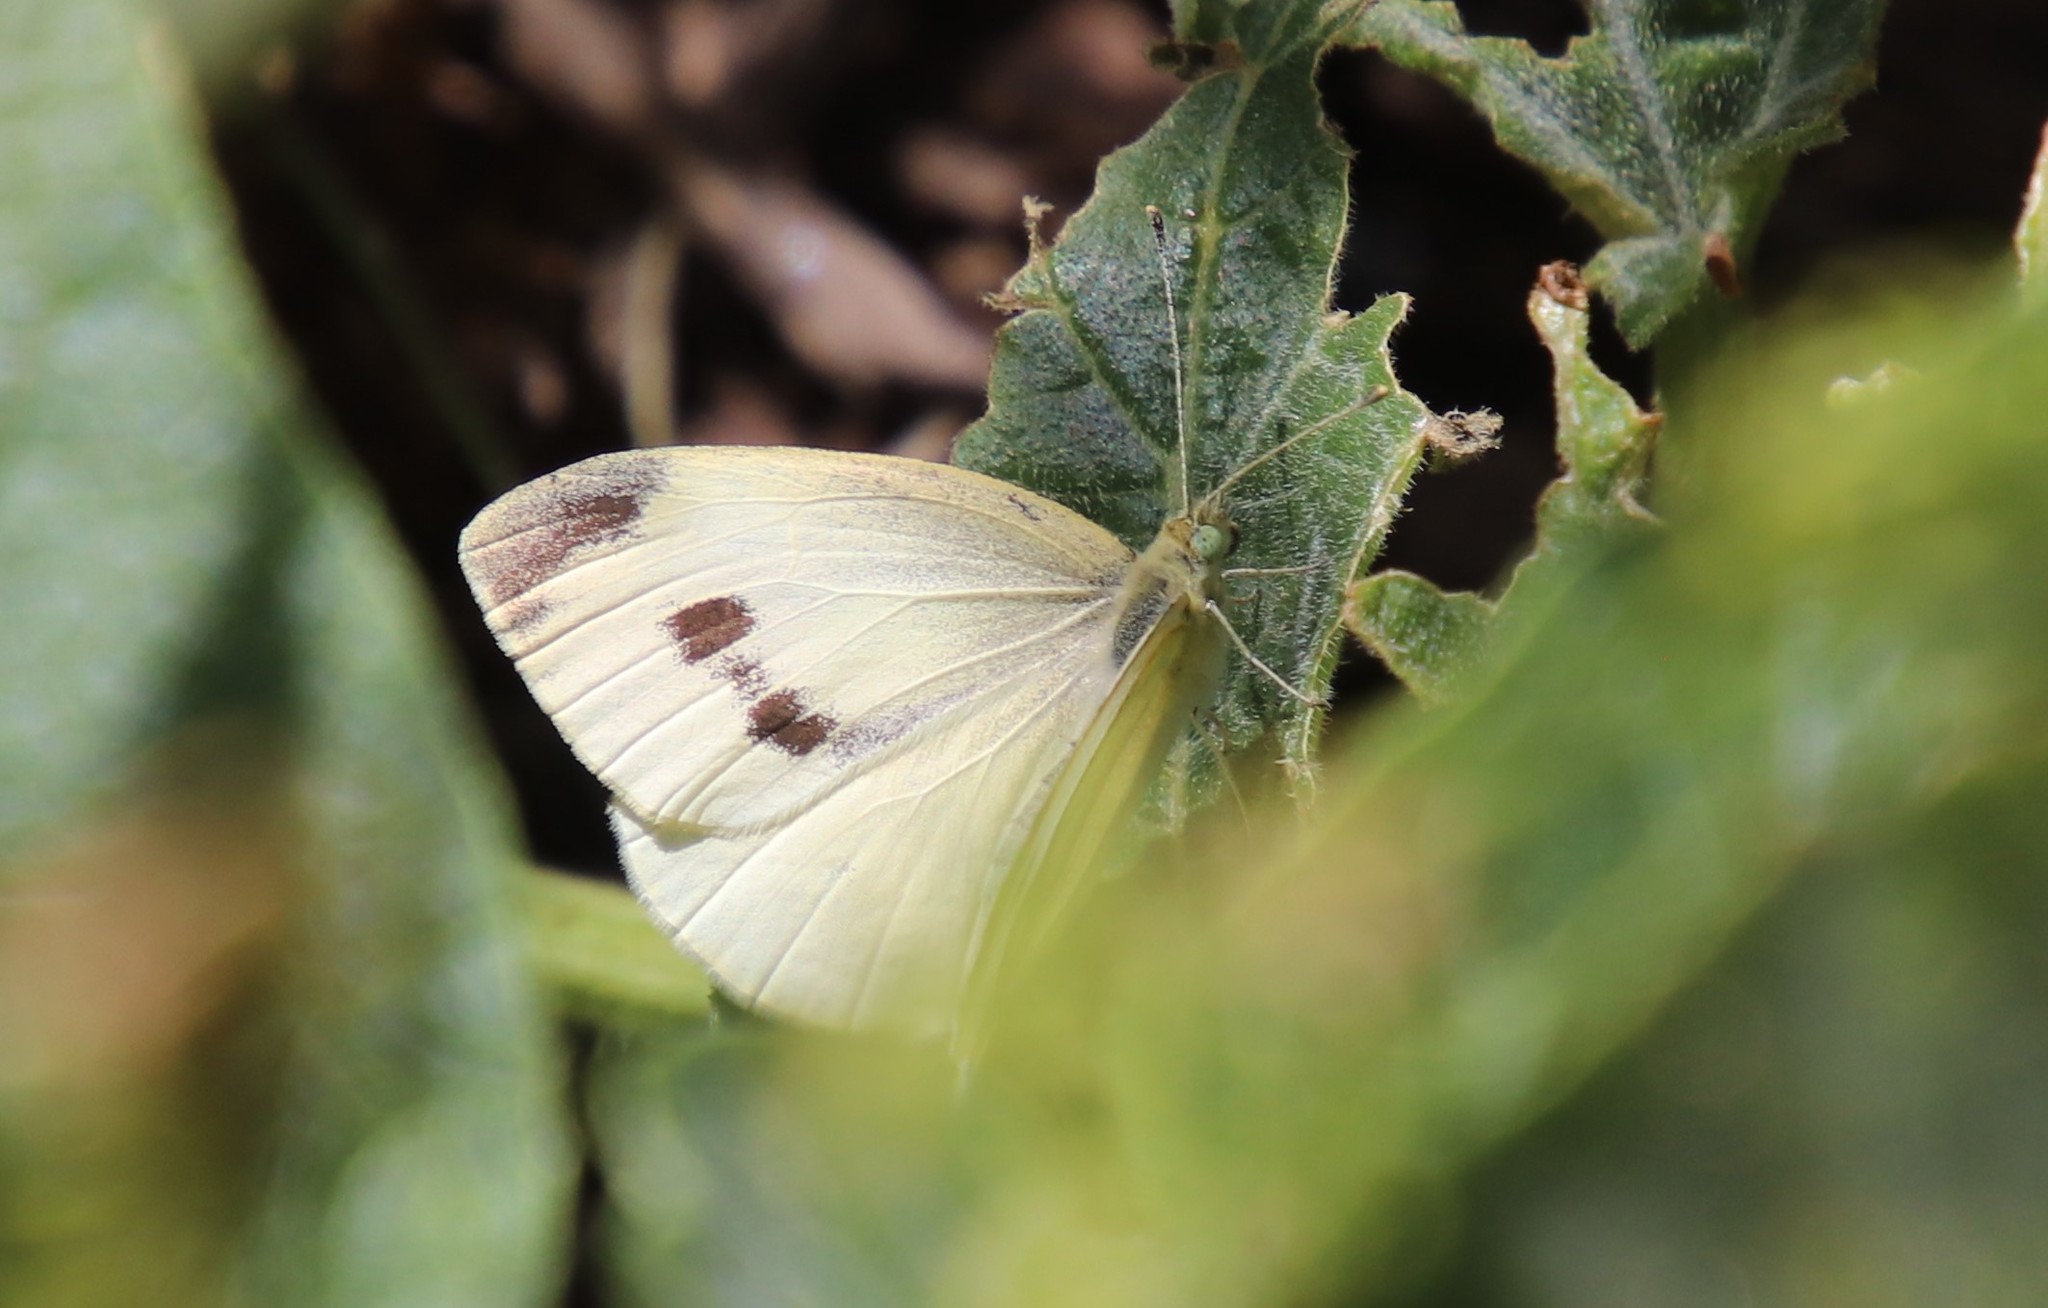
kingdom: Animalia
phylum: Arthropoda
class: Insecta
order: Lepidoptera
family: Pieridae
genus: Pieris
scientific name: Pieris rapae
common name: Small white
